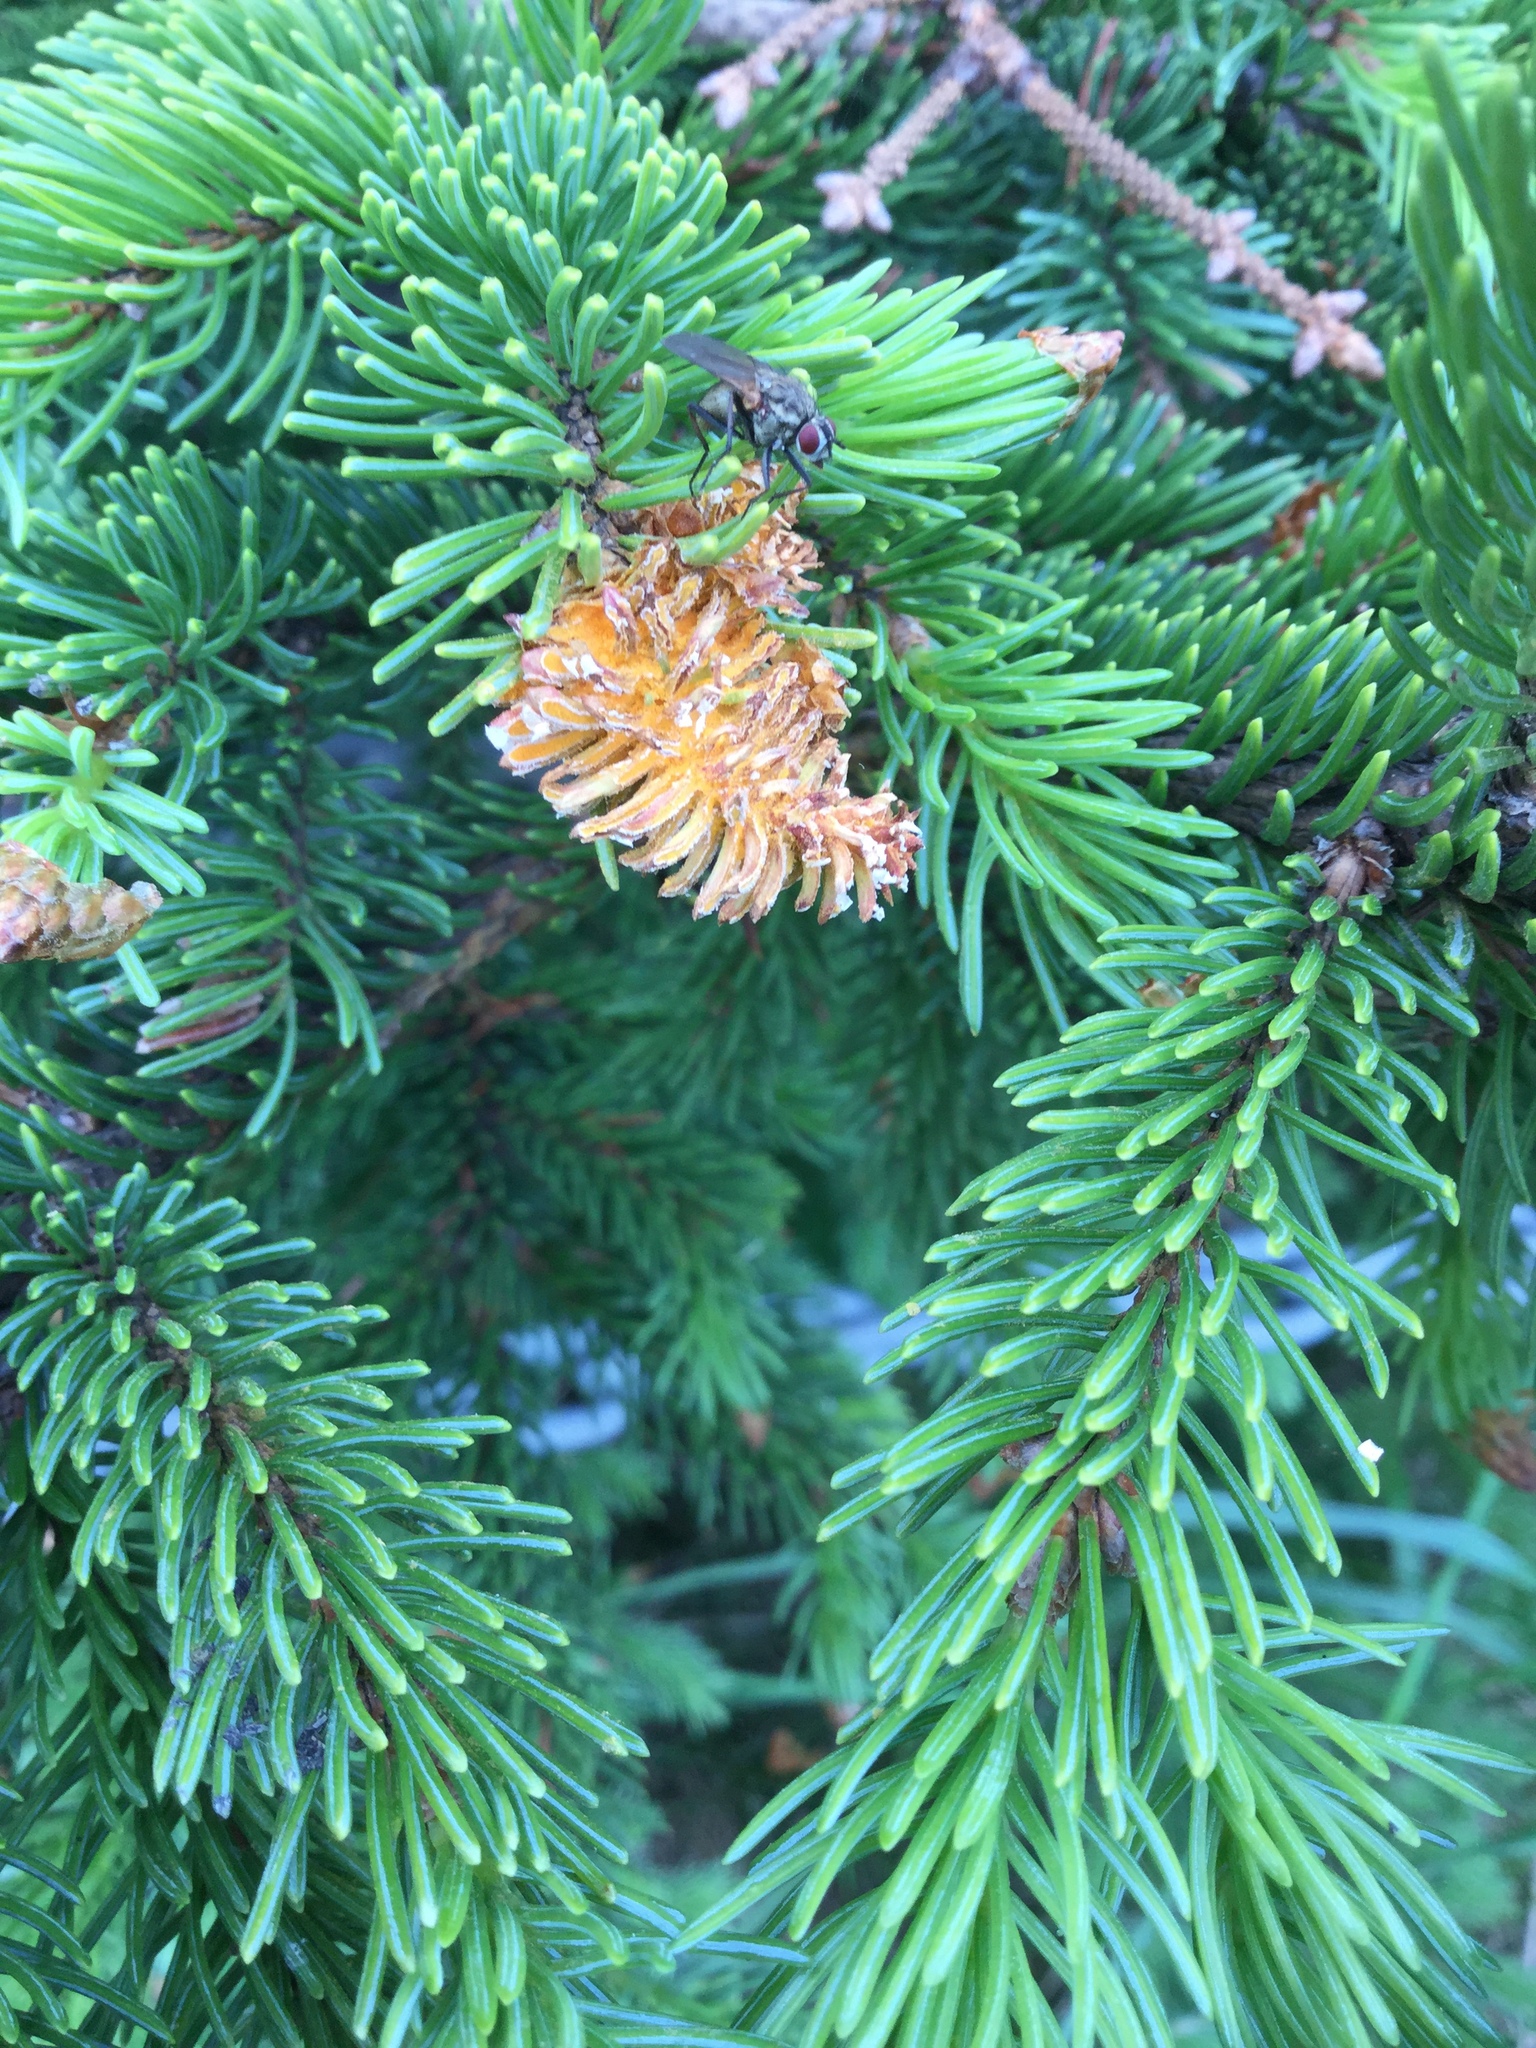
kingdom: Fungi
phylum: Basidiomycota
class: Pucciniomycetes
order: Pucciniales
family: Coleosporiaceae
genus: Chrysomyxa
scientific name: Chrysomyxa woroninii
